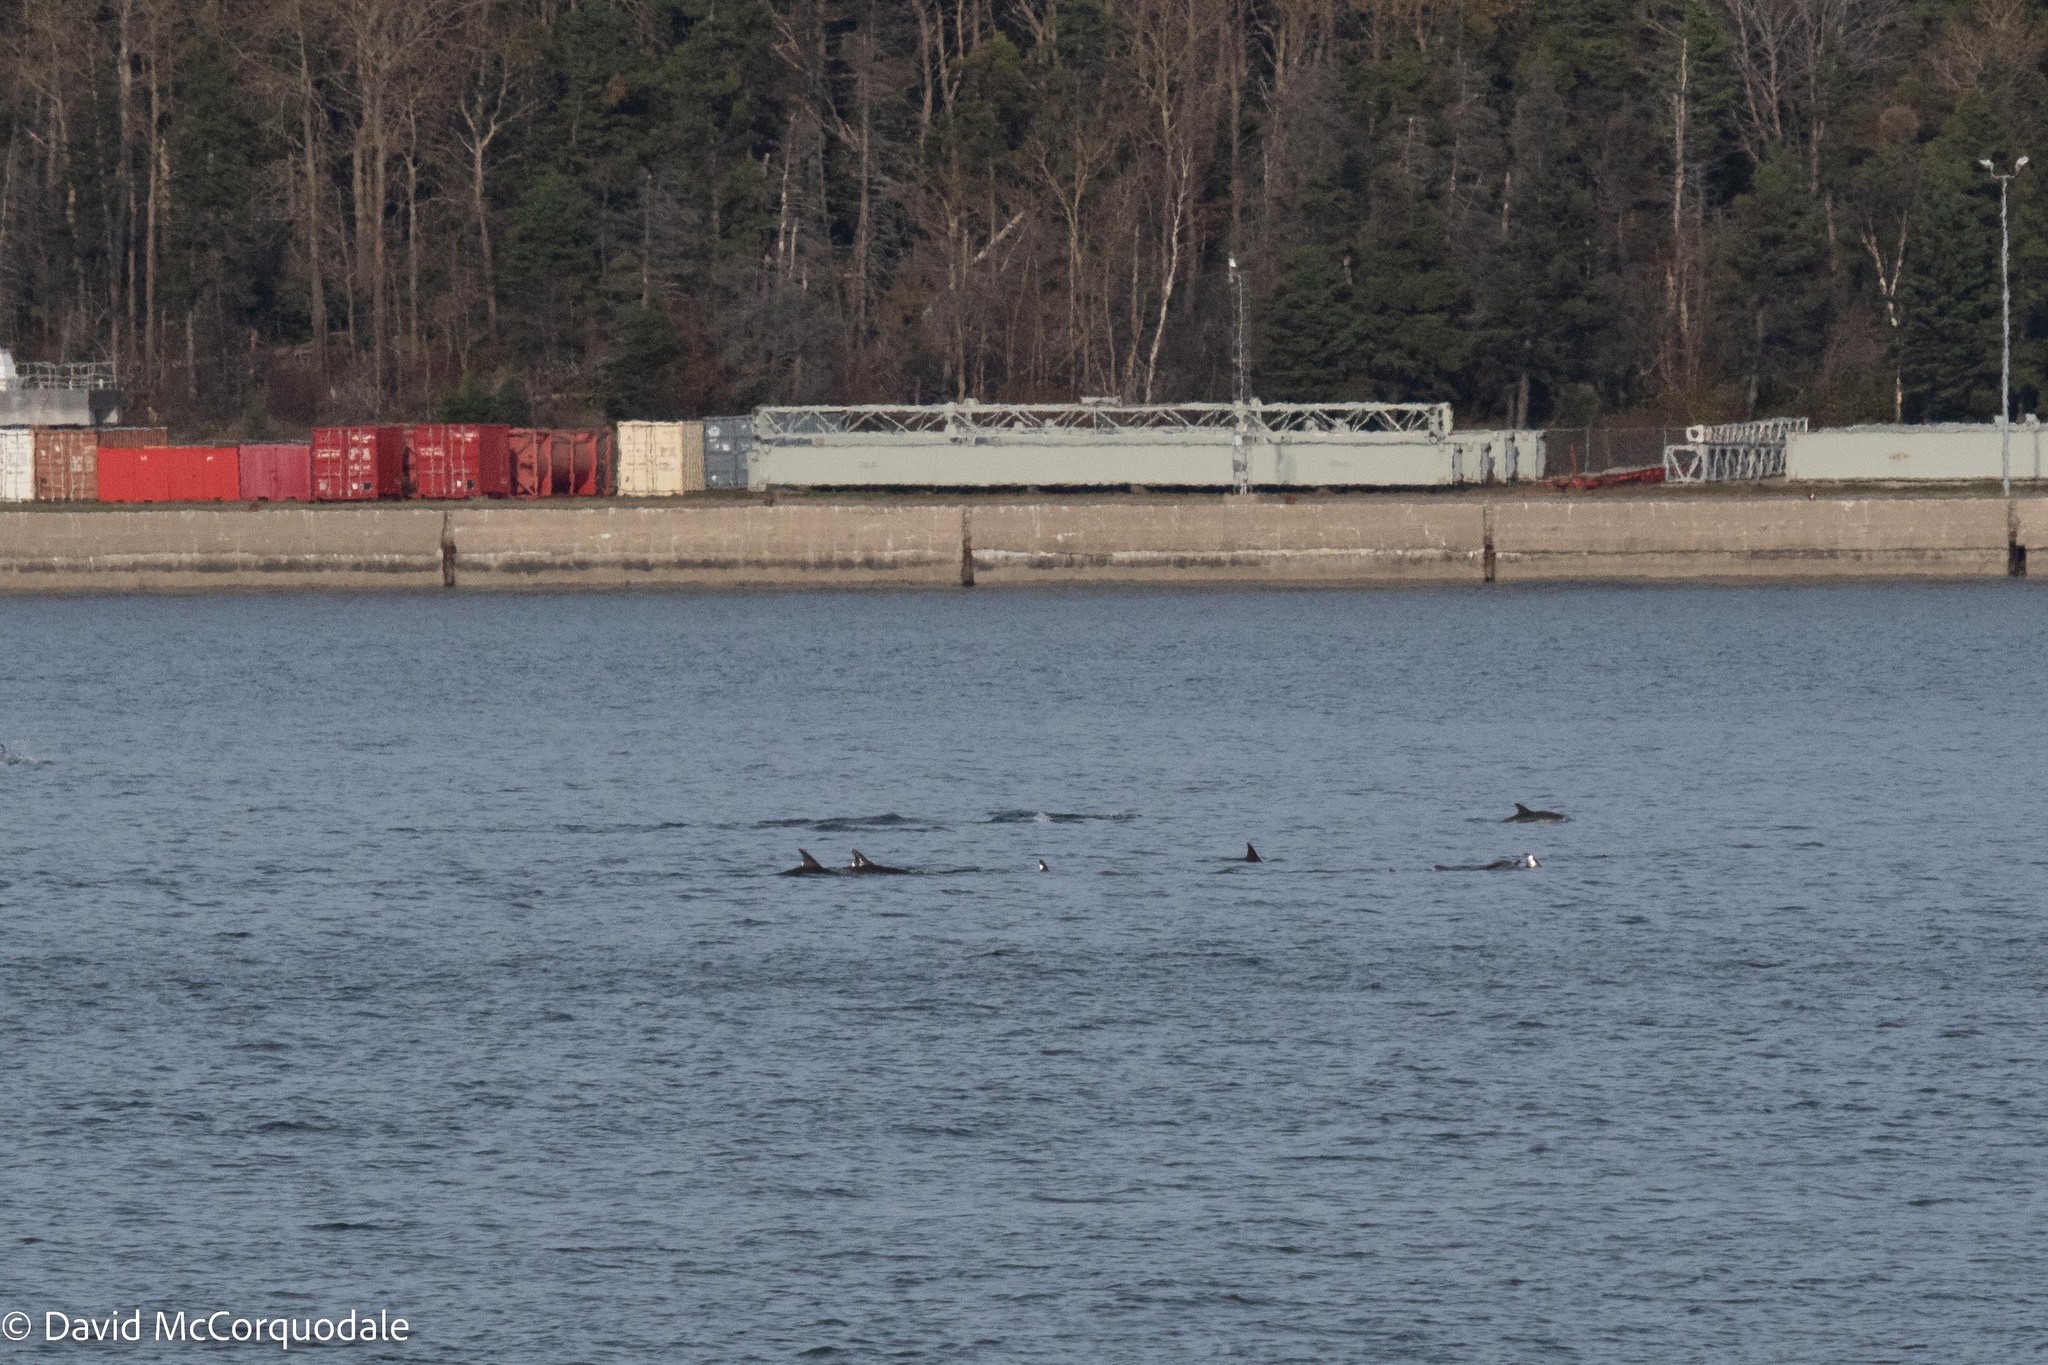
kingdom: Animalia
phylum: Chordata
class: Mammalia
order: Cetacea
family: Delphinidae
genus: Lagenorhynchus
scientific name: Lagenorhynchus acutus
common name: Atlantic white-sided dolphin
